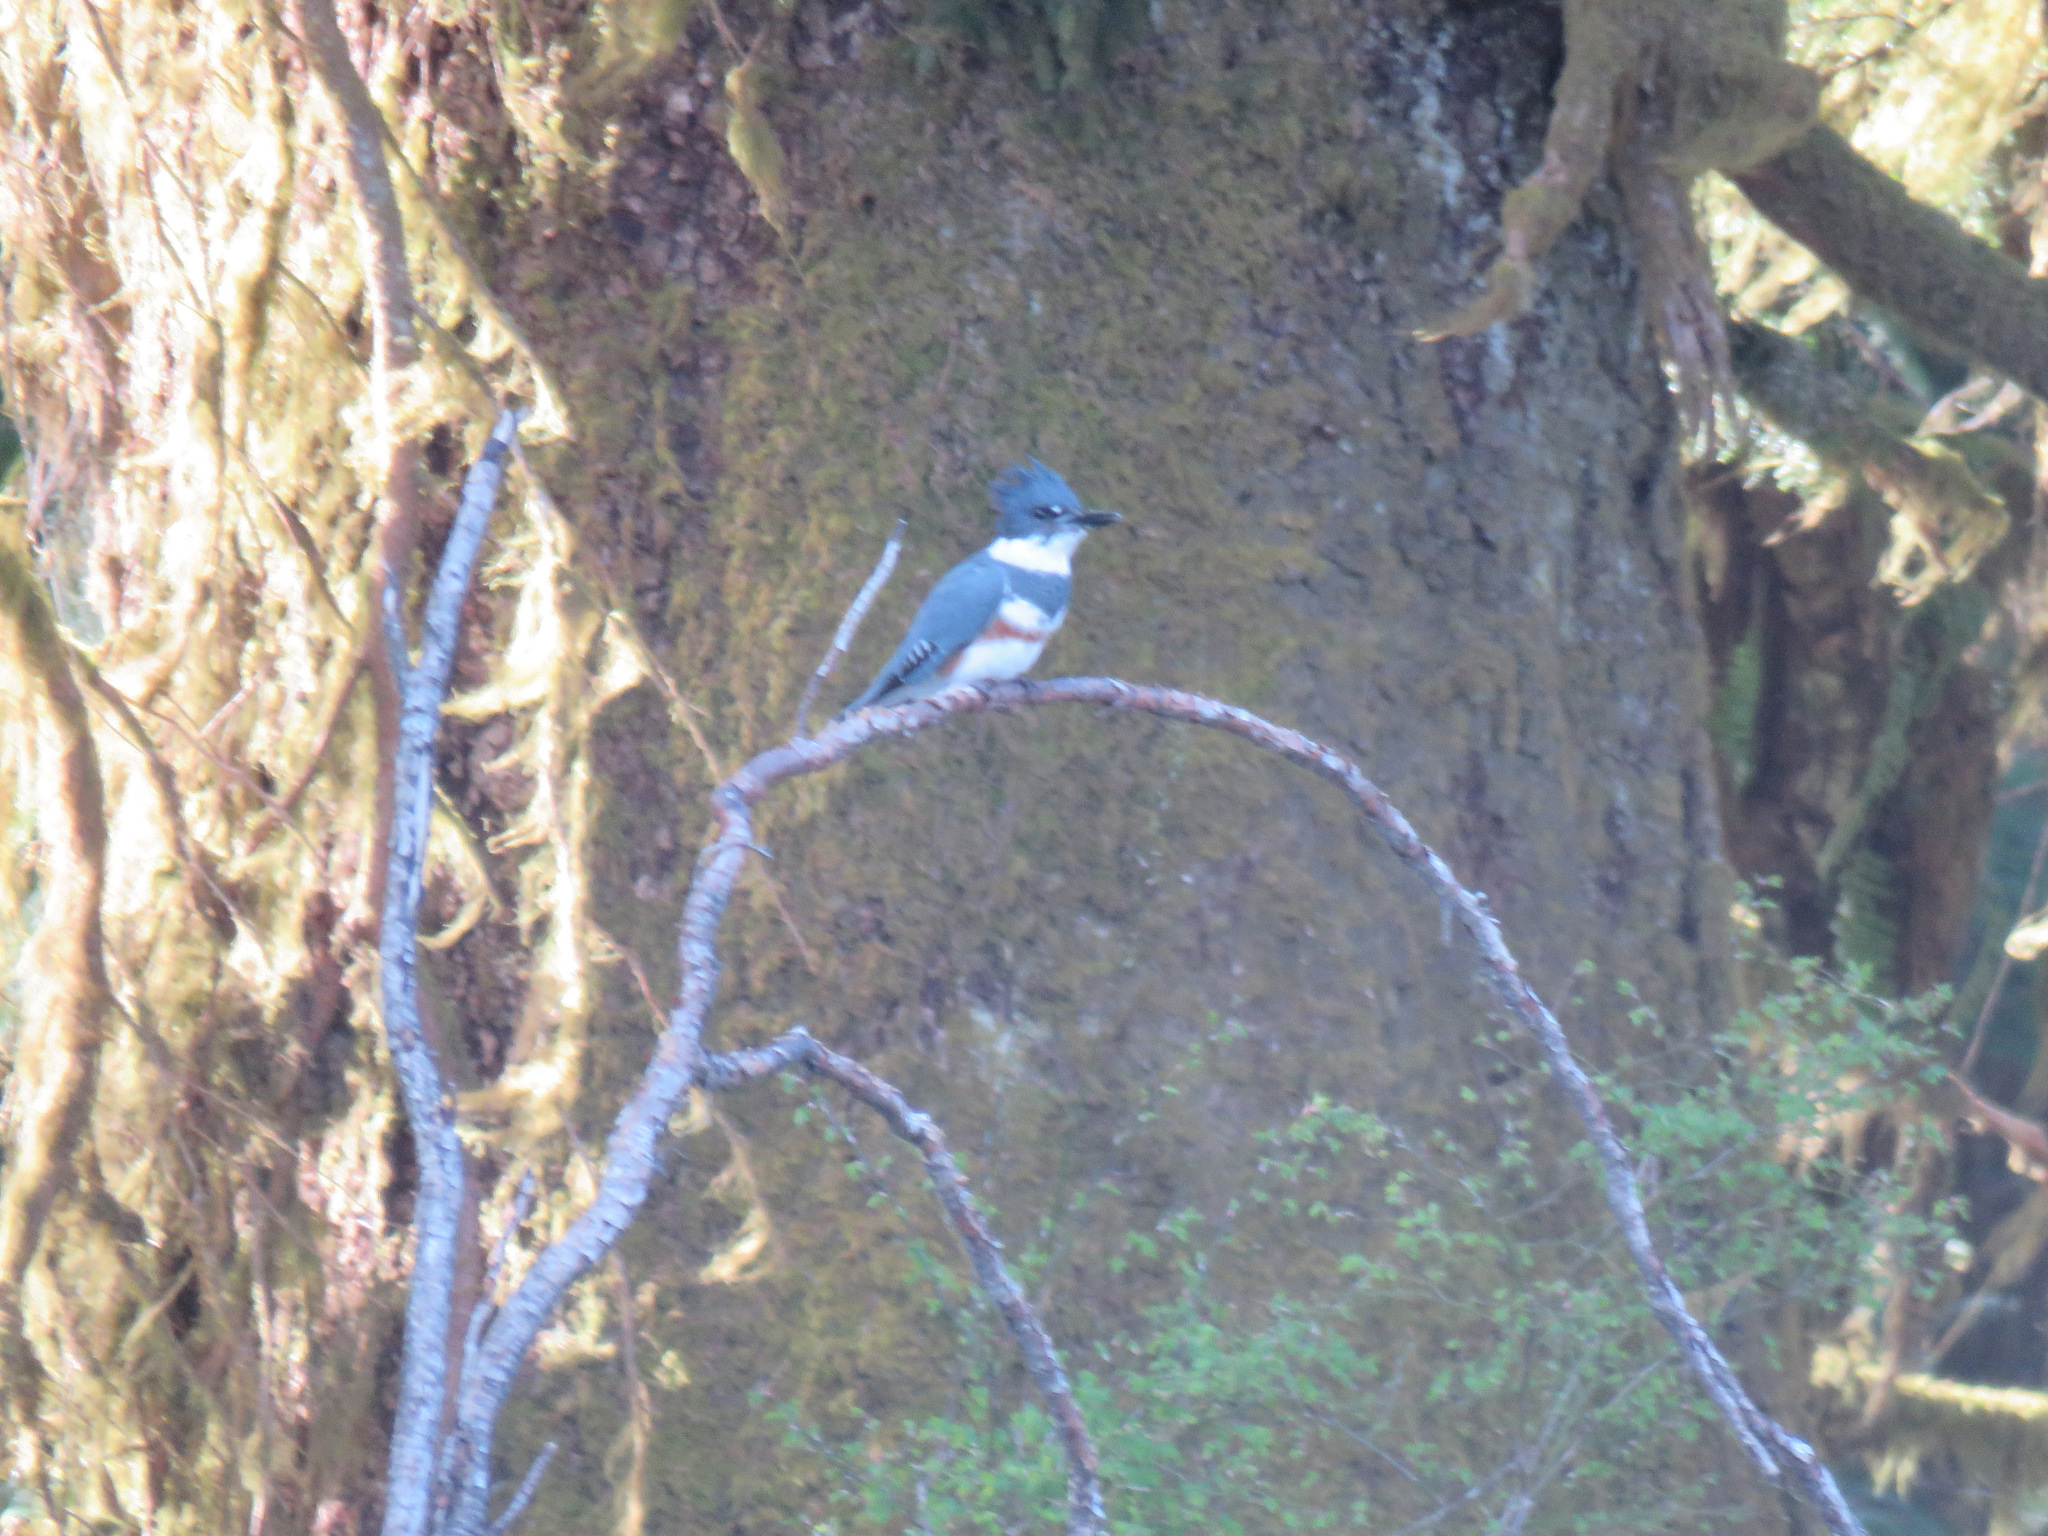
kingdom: Animalia
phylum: Chordata
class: Aves
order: Coraciiformes
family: Alcedinidae
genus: Megaceryle
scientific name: Megaceryle alcyon
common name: Belted kingfisher
